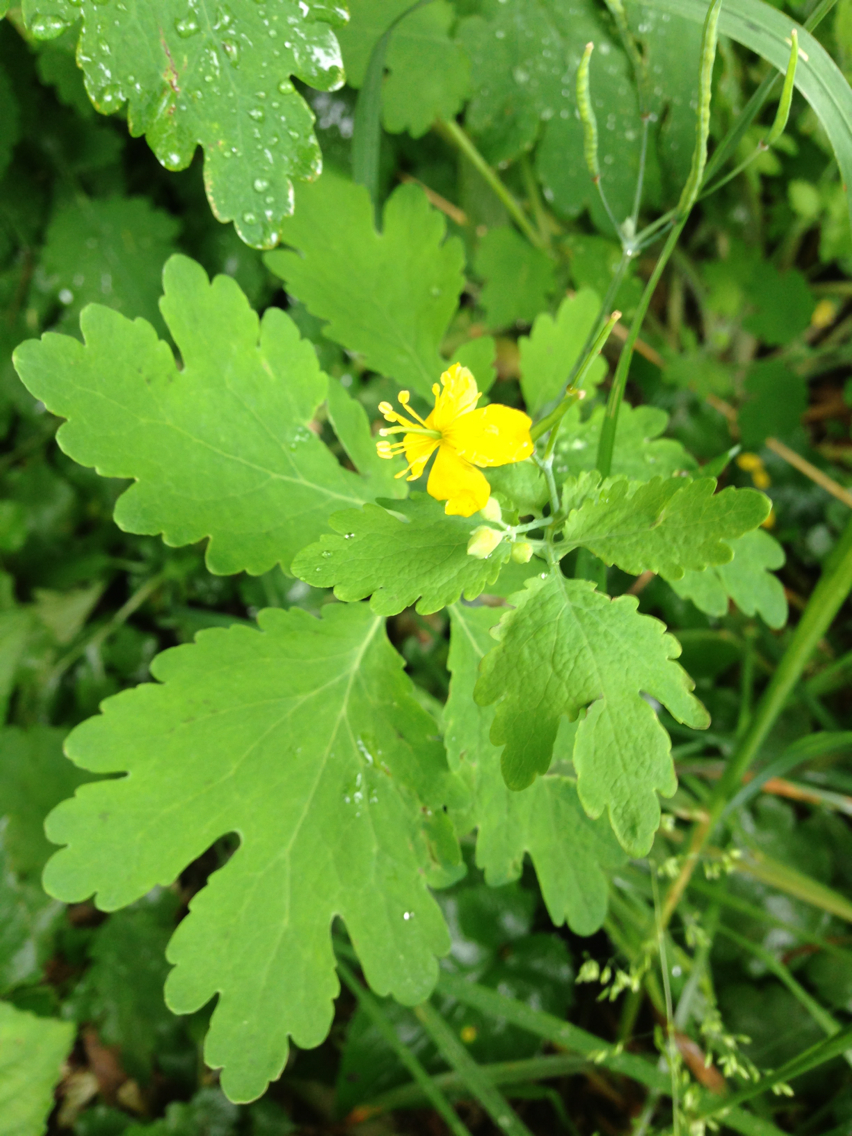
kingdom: Plantae
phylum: Tracheophyta
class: Magnoliopsida
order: Ranunculales
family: Papaveraceae
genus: Chelidonium
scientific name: Chelidonium majus
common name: Greater celandine
